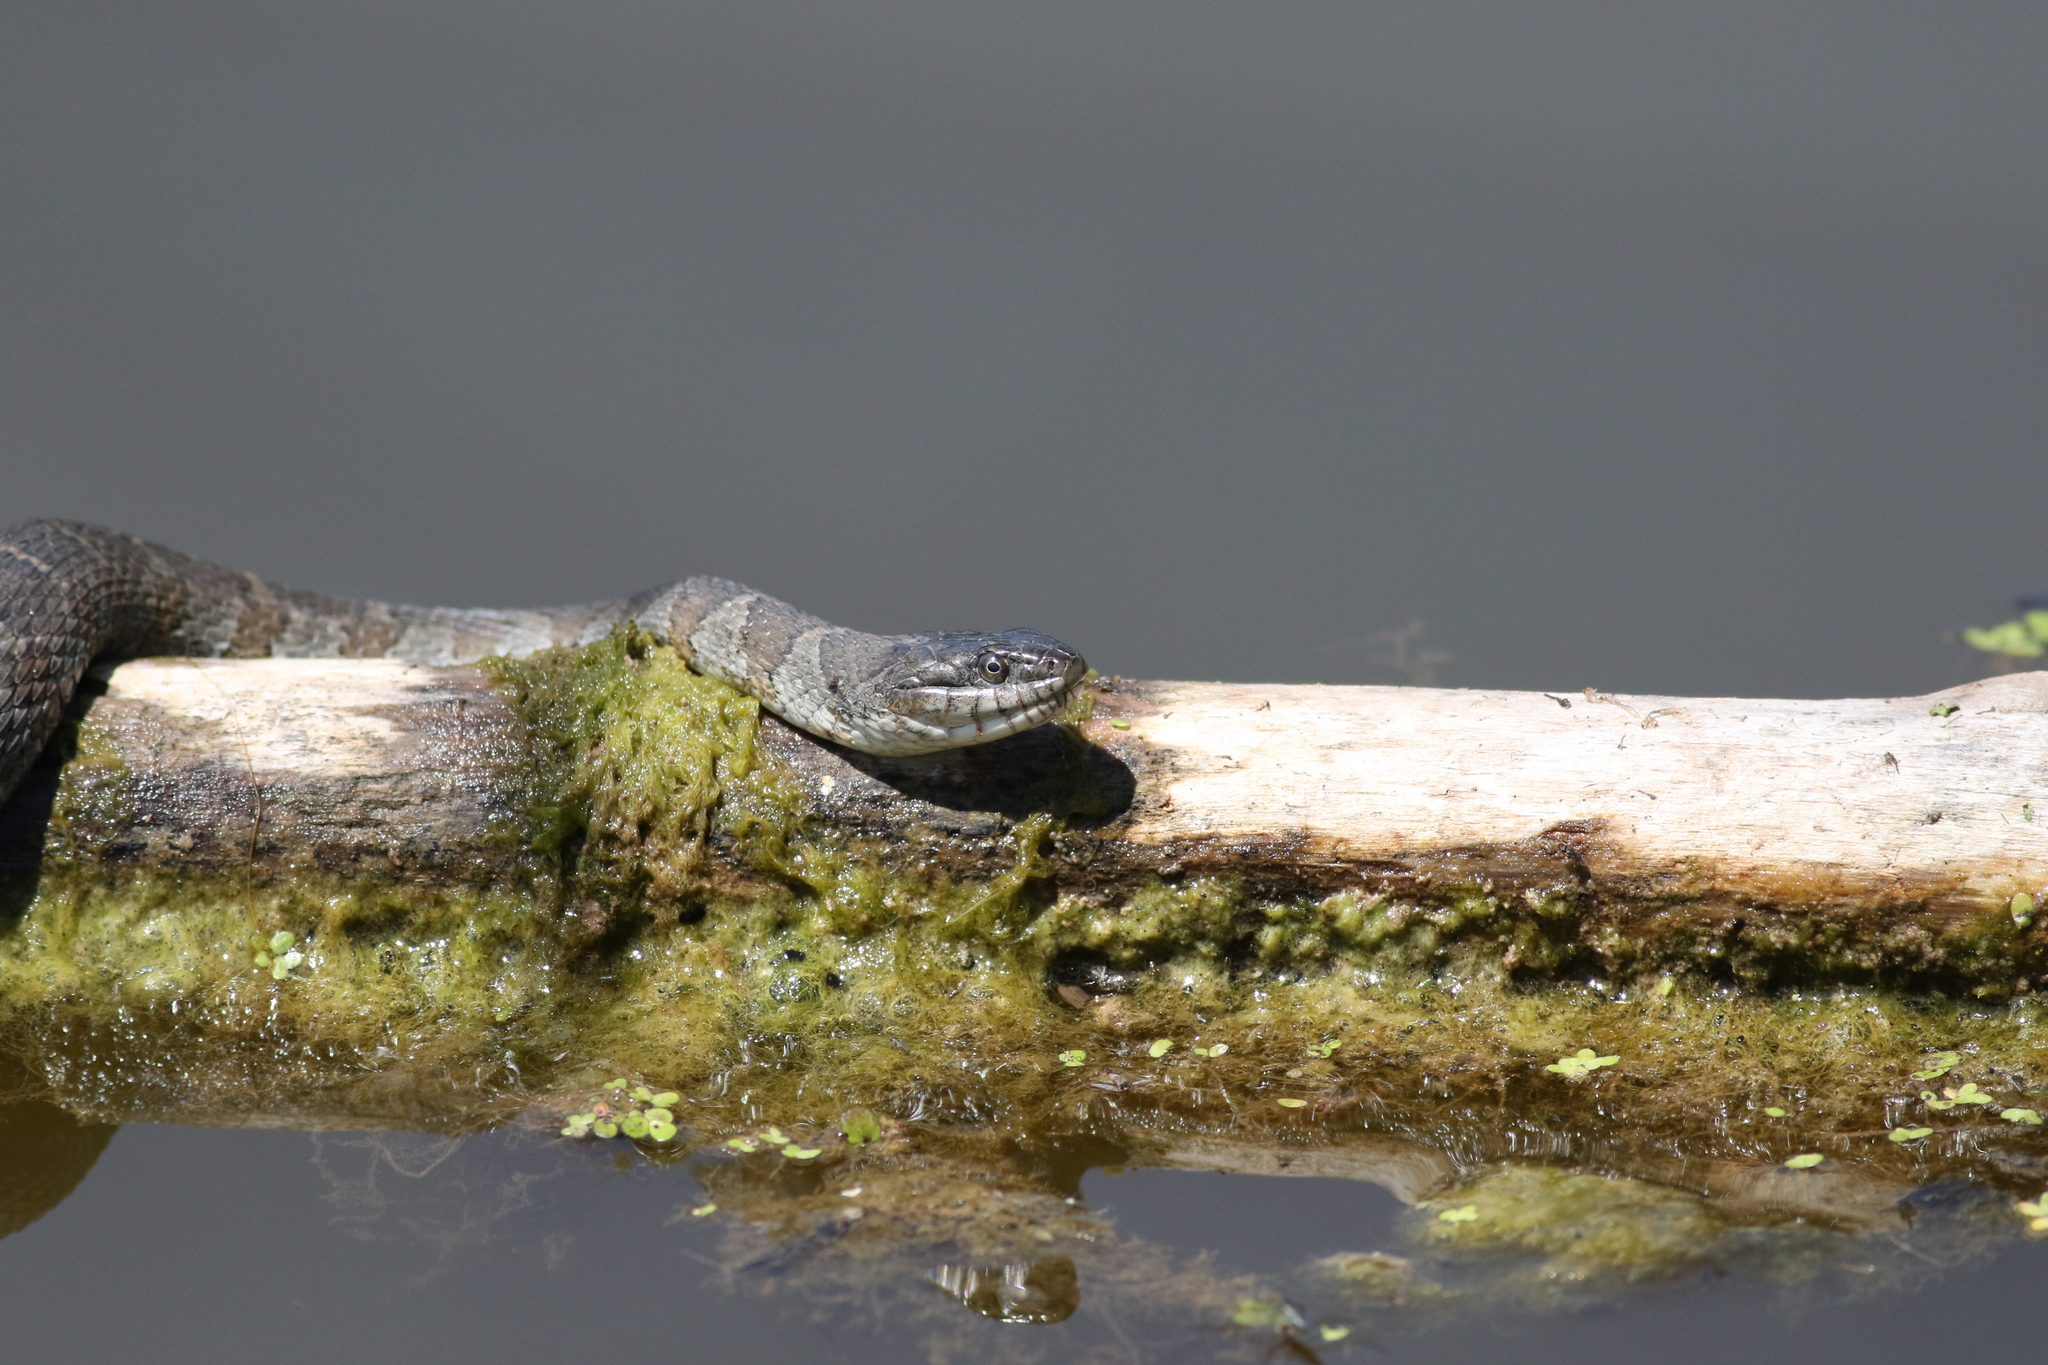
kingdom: Animalia
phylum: Chordata
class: Squamata
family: Colubridae
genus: Nerodia
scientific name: Nerodia sipedon
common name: Northern water snake
